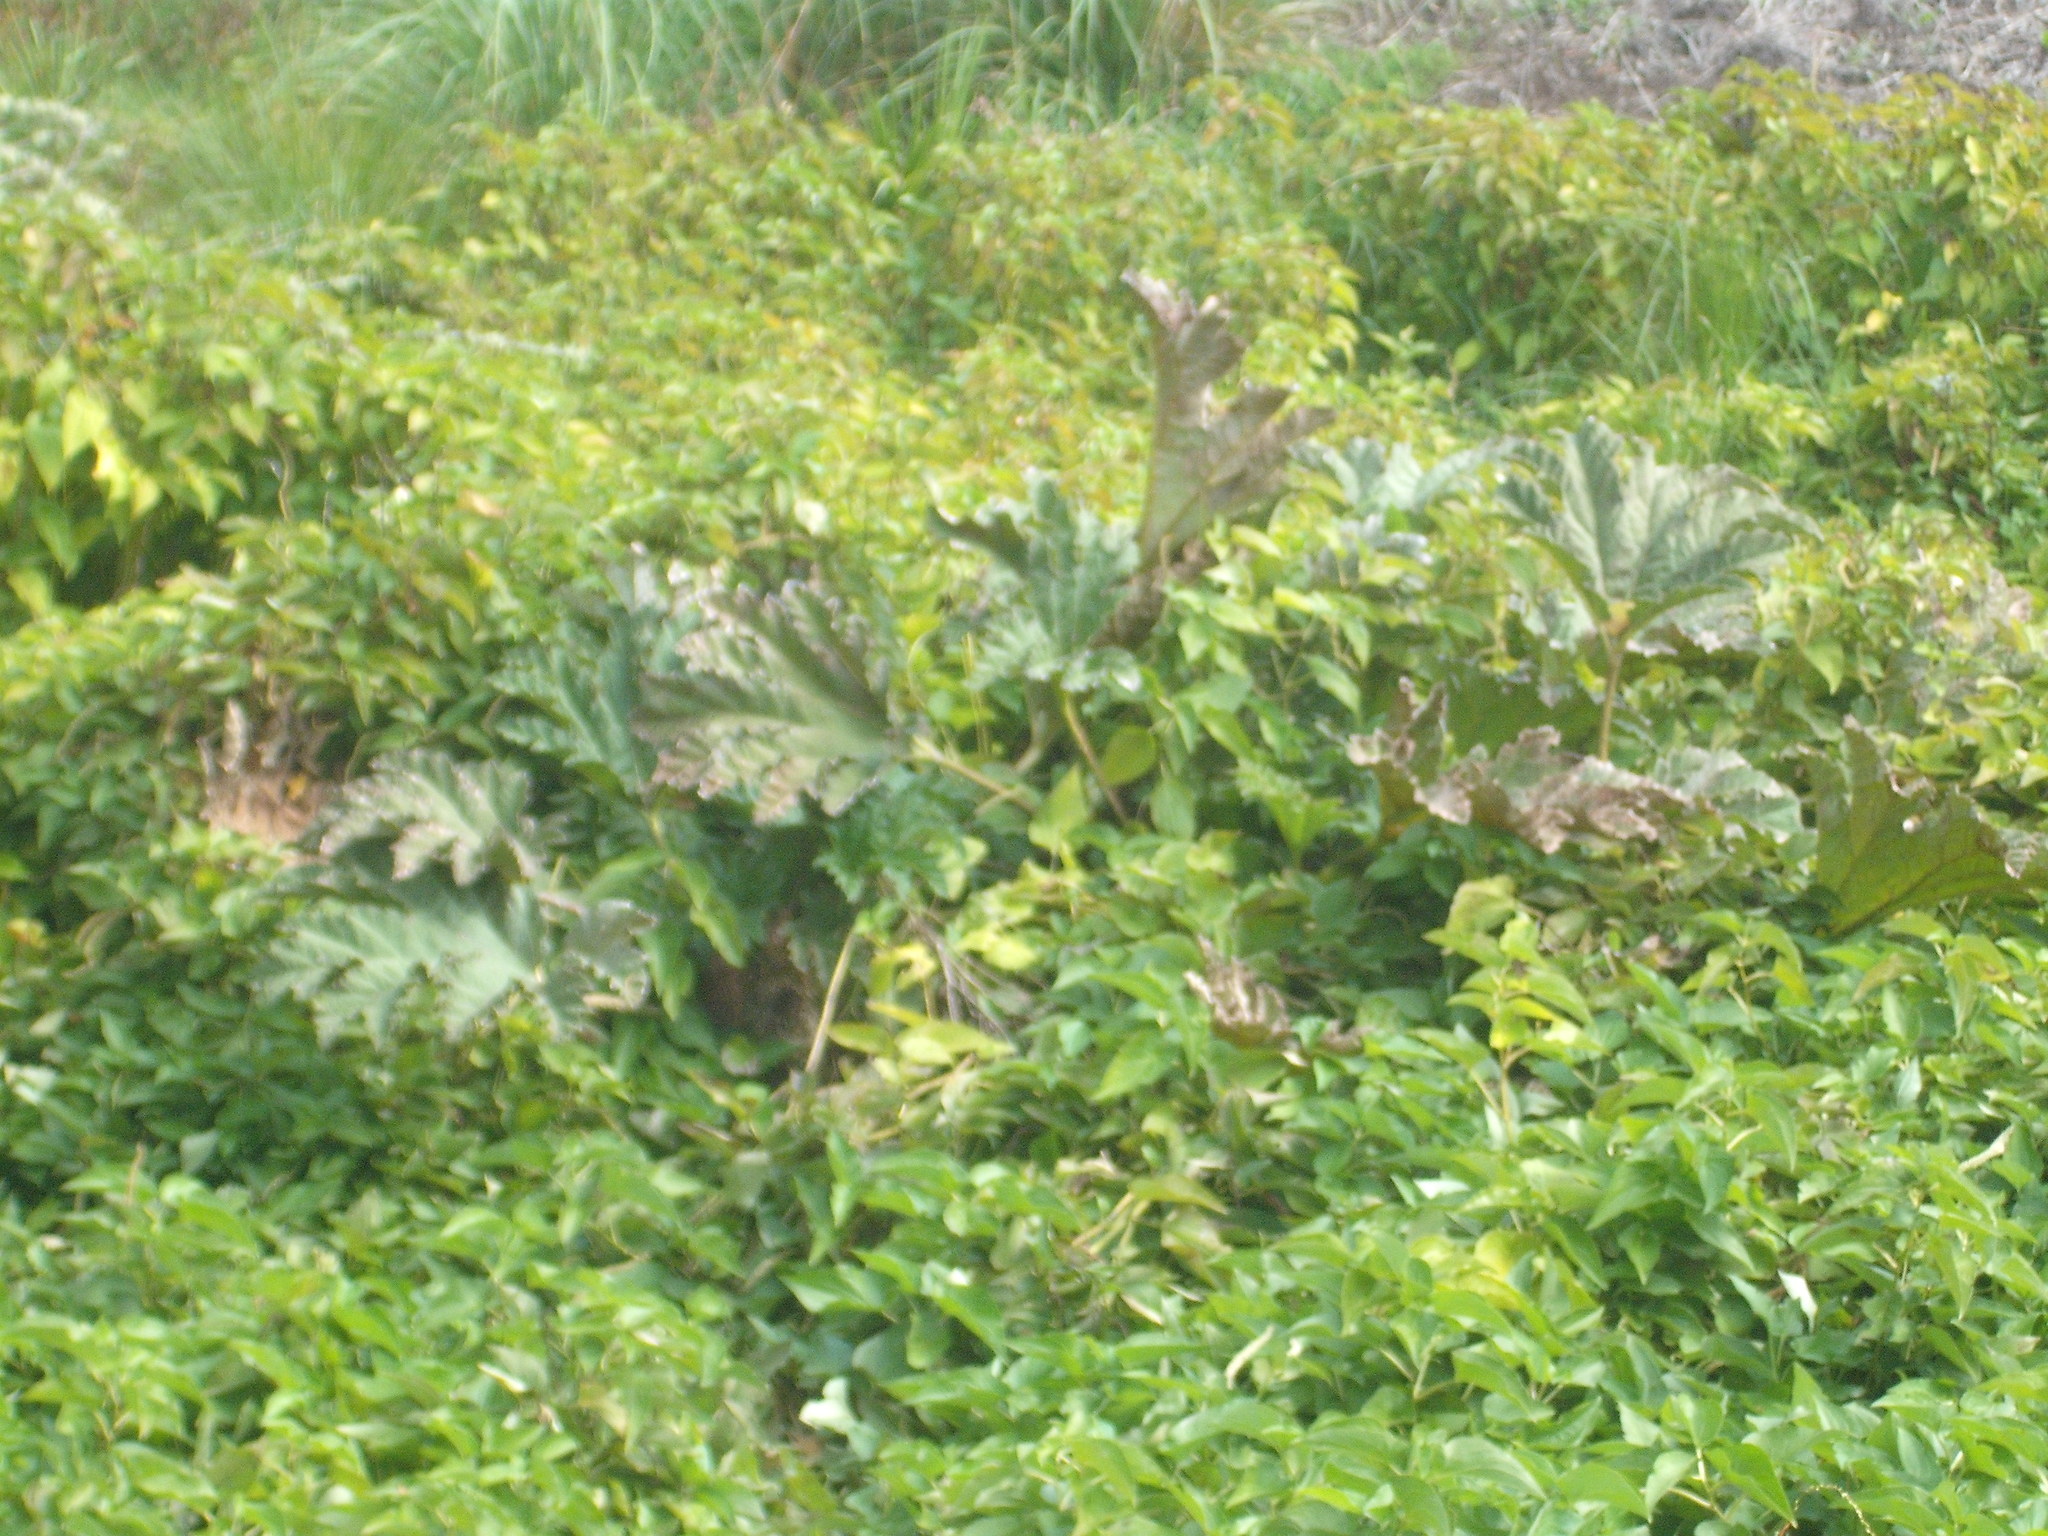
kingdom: Plantae
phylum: Tracheophyta
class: Magnoliopsida
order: Gunnerales
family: Gunneraceae
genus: Gunnera
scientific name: Gunnera tinctoria
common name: Giant-rhubarb
